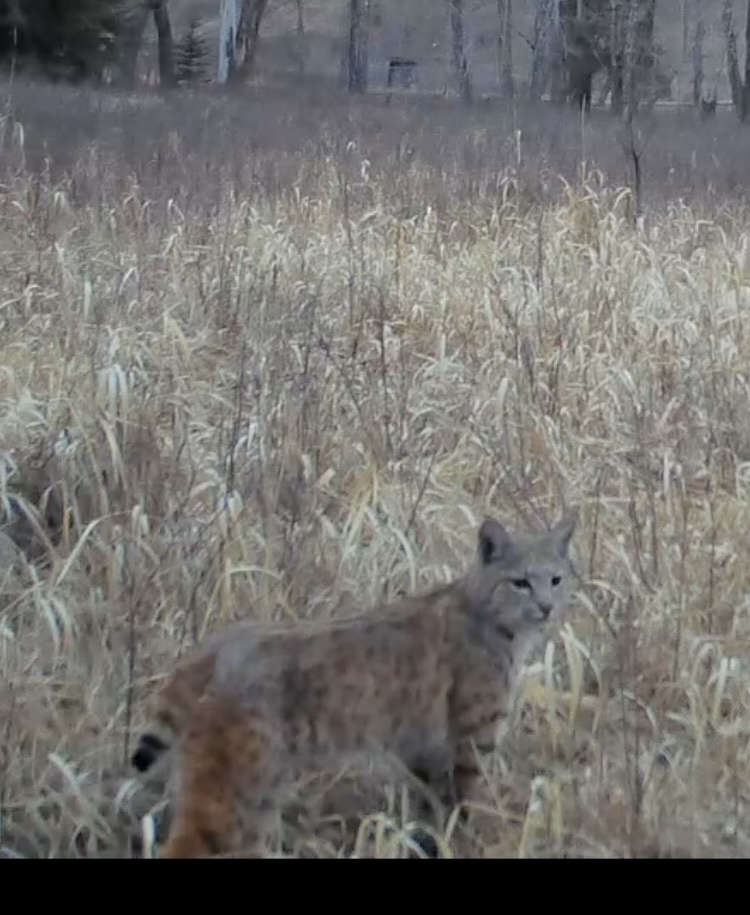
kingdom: Animalia
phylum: Chordata
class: Mammalia
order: Carnivora
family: Felidae
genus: Lynx
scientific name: Lynx rufus
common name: Bobcat
